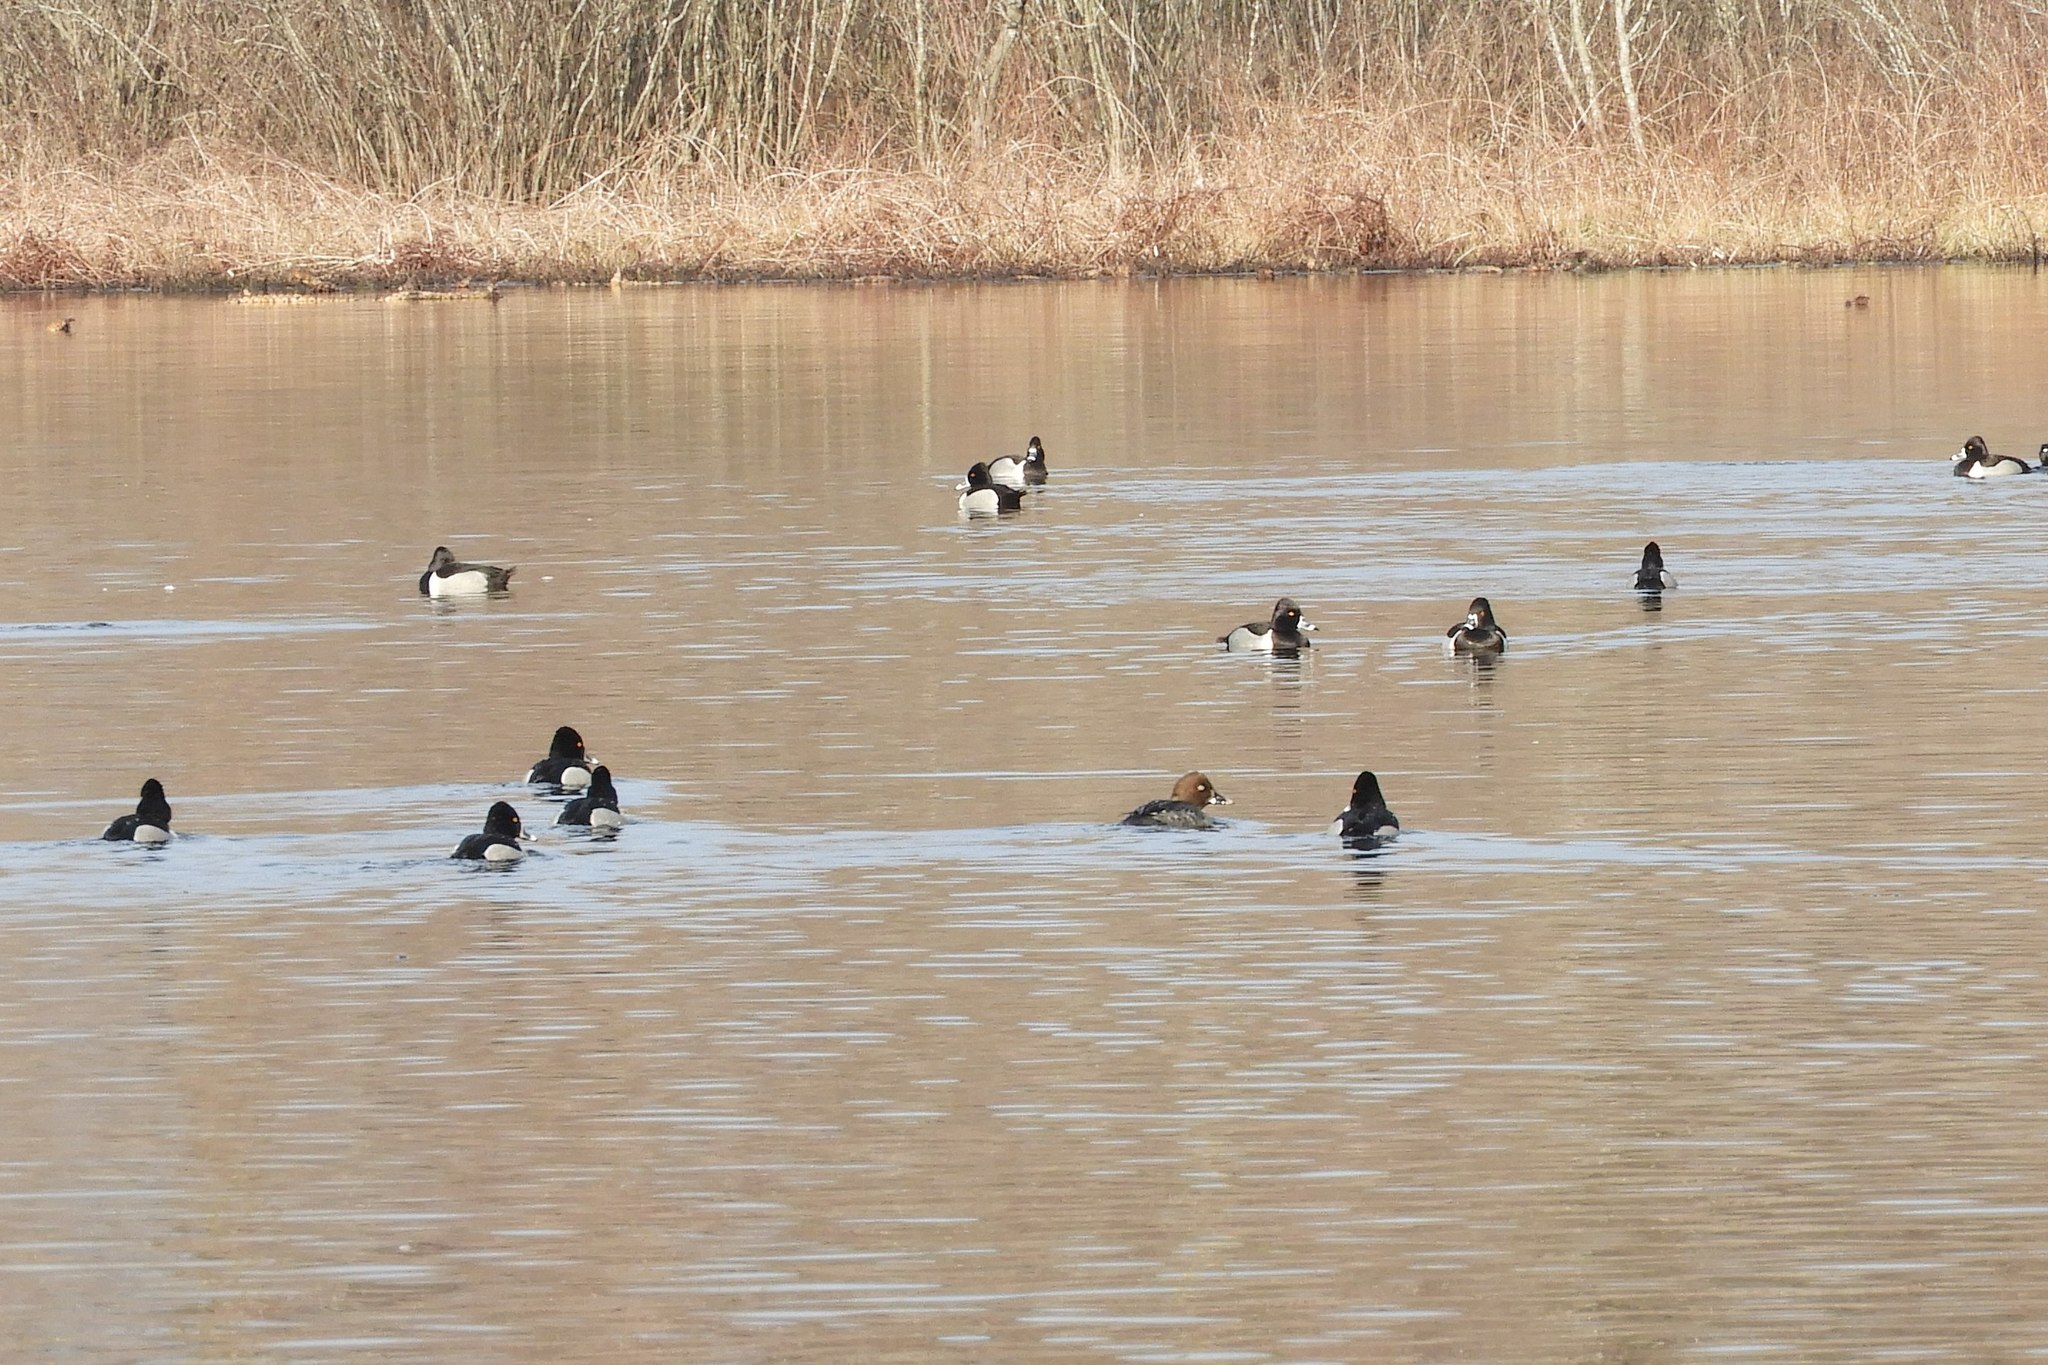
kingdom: Animalia
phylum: Chordata
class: Aves
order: Anseriformes
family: Anatidae
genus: Aythya
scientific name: Aythya collaris
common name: Ring-necked duck
